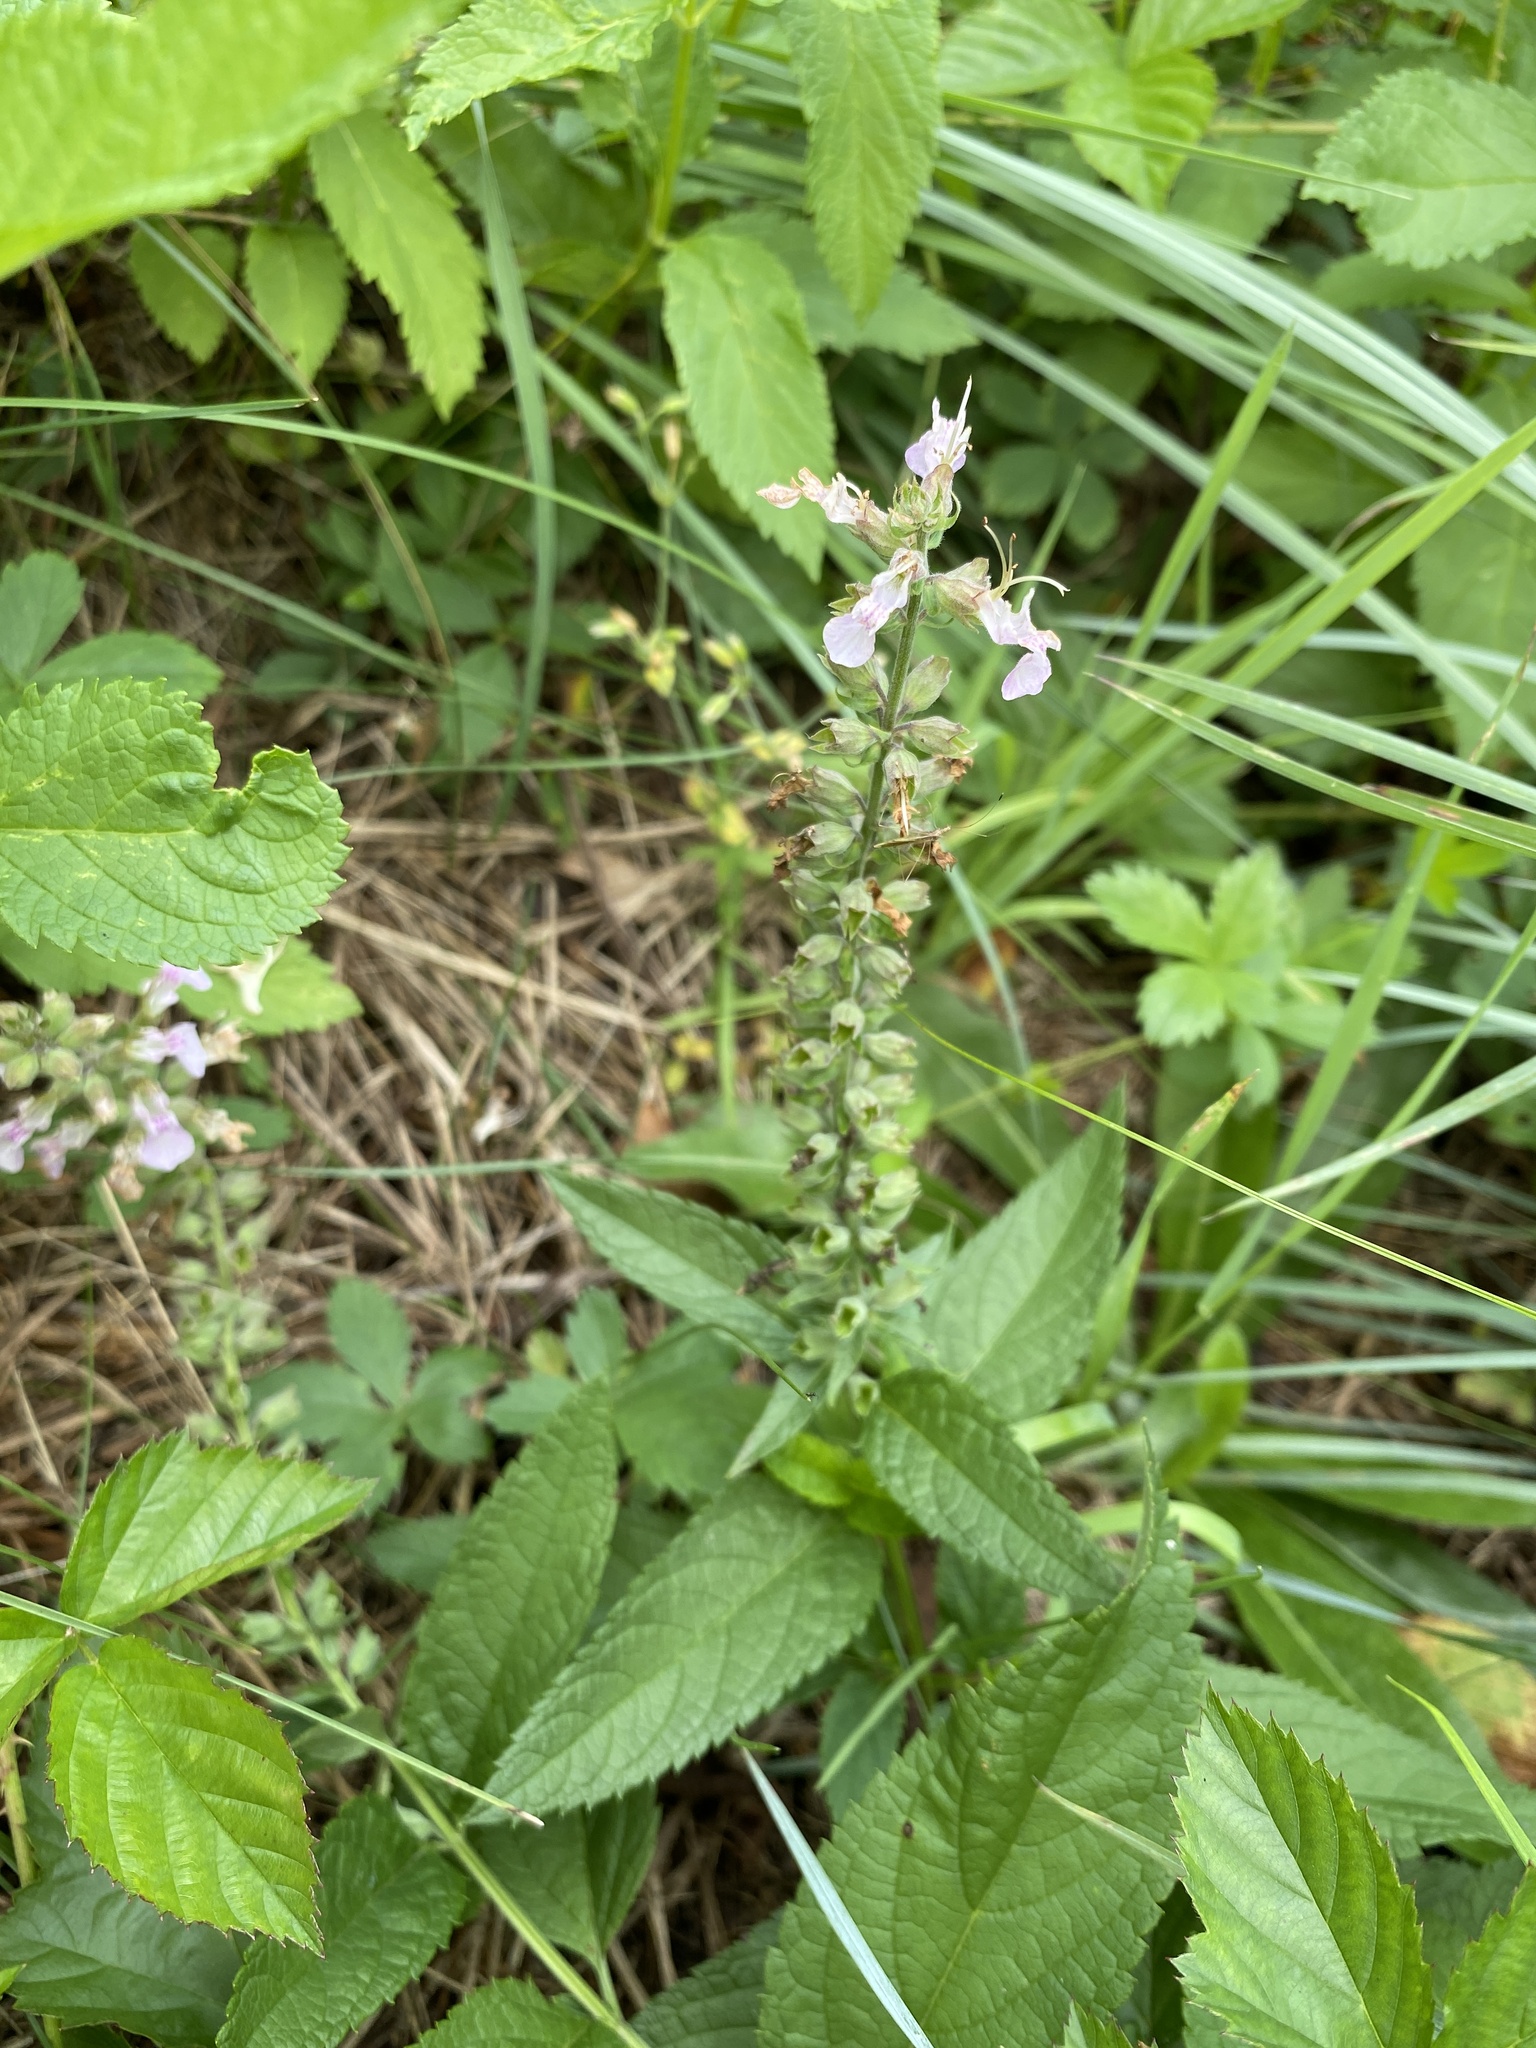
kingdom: Plantae
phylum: Tracheophyta
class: Magnoliopsida
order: Lamiales
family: Lamiaceae
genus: Teucrium
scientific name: Teucrium canadense
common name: American germander
